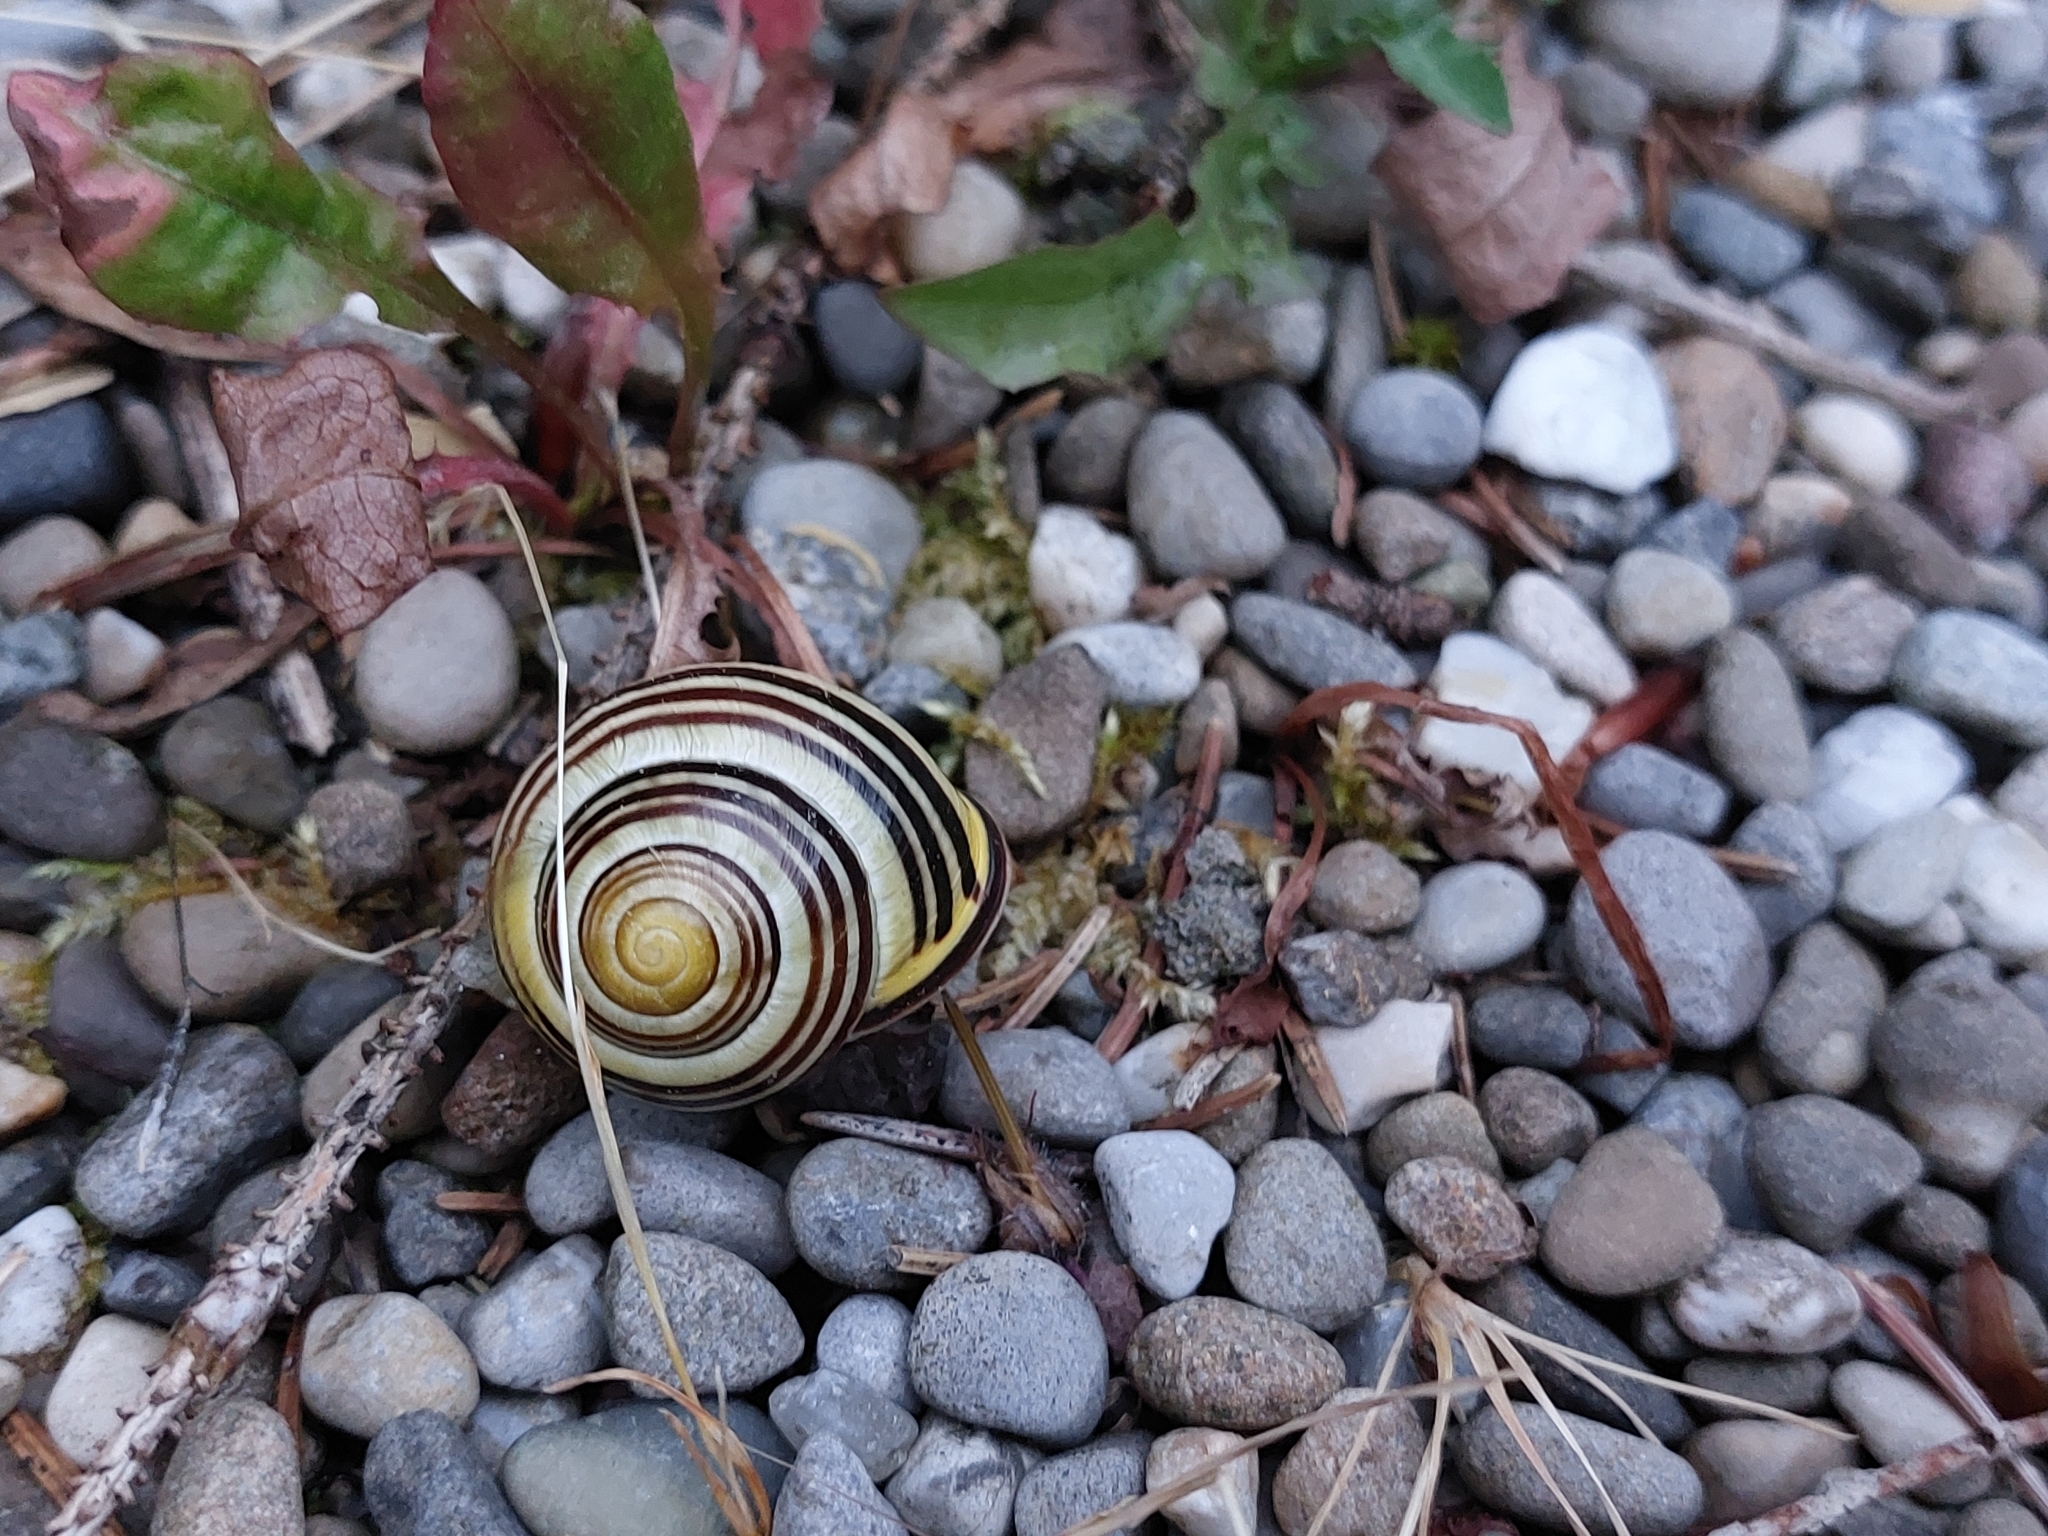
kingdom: Animalia
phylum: Mollusca
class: Gastropoda
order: Stylommatophora
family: Helicidae
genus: Cepaea
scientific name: Cepaea nemoralis
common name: Grovesnail
